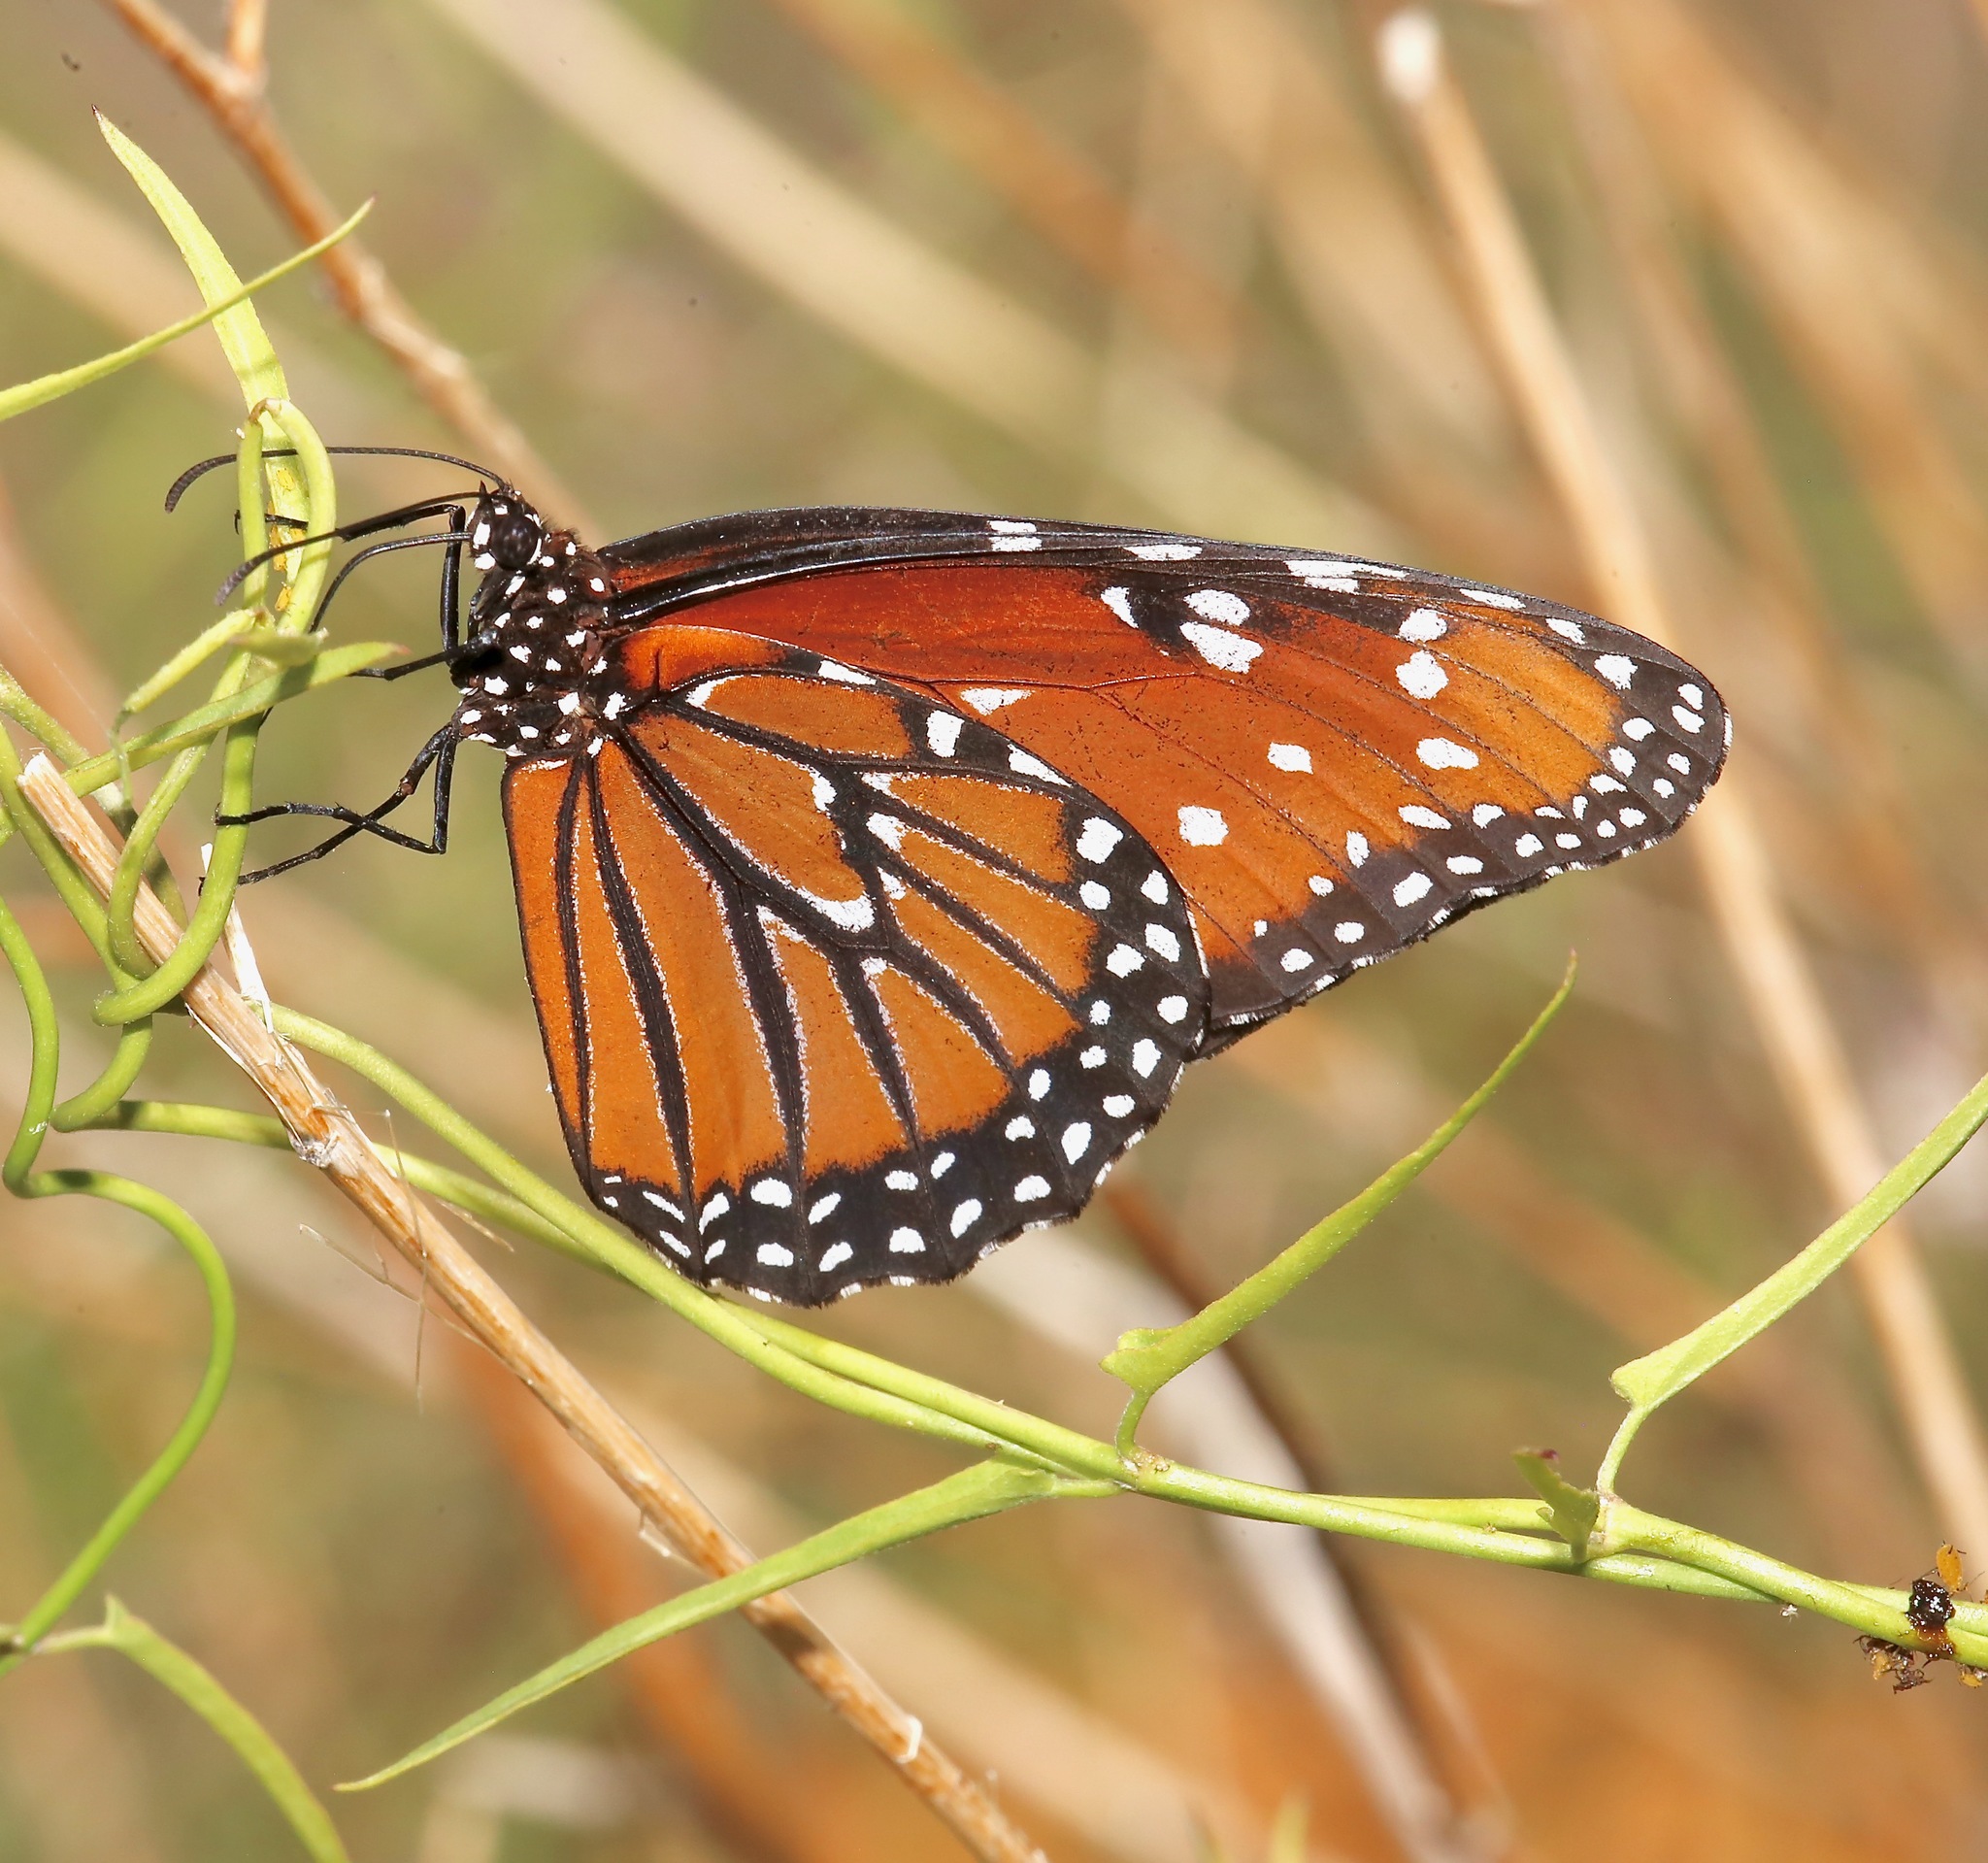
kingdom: Animalia
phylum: Arthropoda
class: Insecta
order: Lepidoptera
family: Nymphalidae
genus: Danaus
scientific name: Danaus gilippus
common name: Queen
